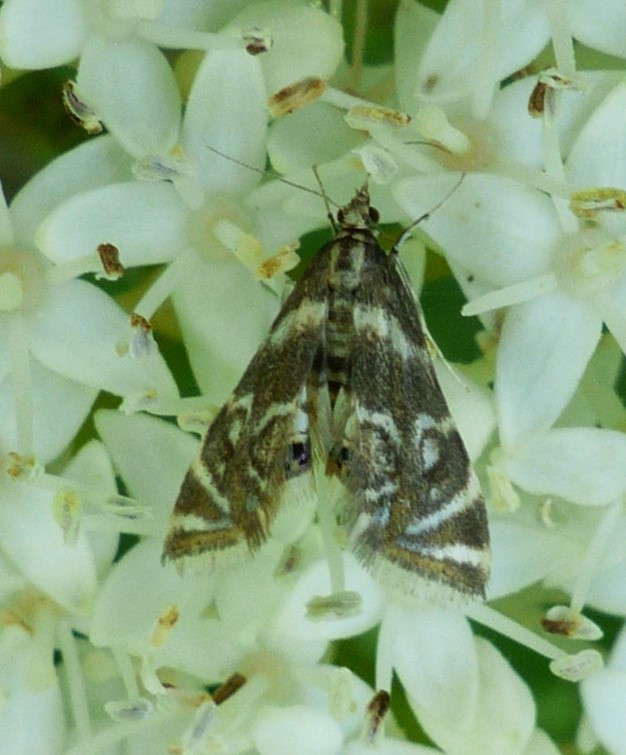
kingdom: Animalia
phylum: Arthropoda
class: Insecta
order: Lepidoptera
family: Crambidae
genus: Petrophila
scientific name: Petrophila canadensis
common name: Canadian petrophila
